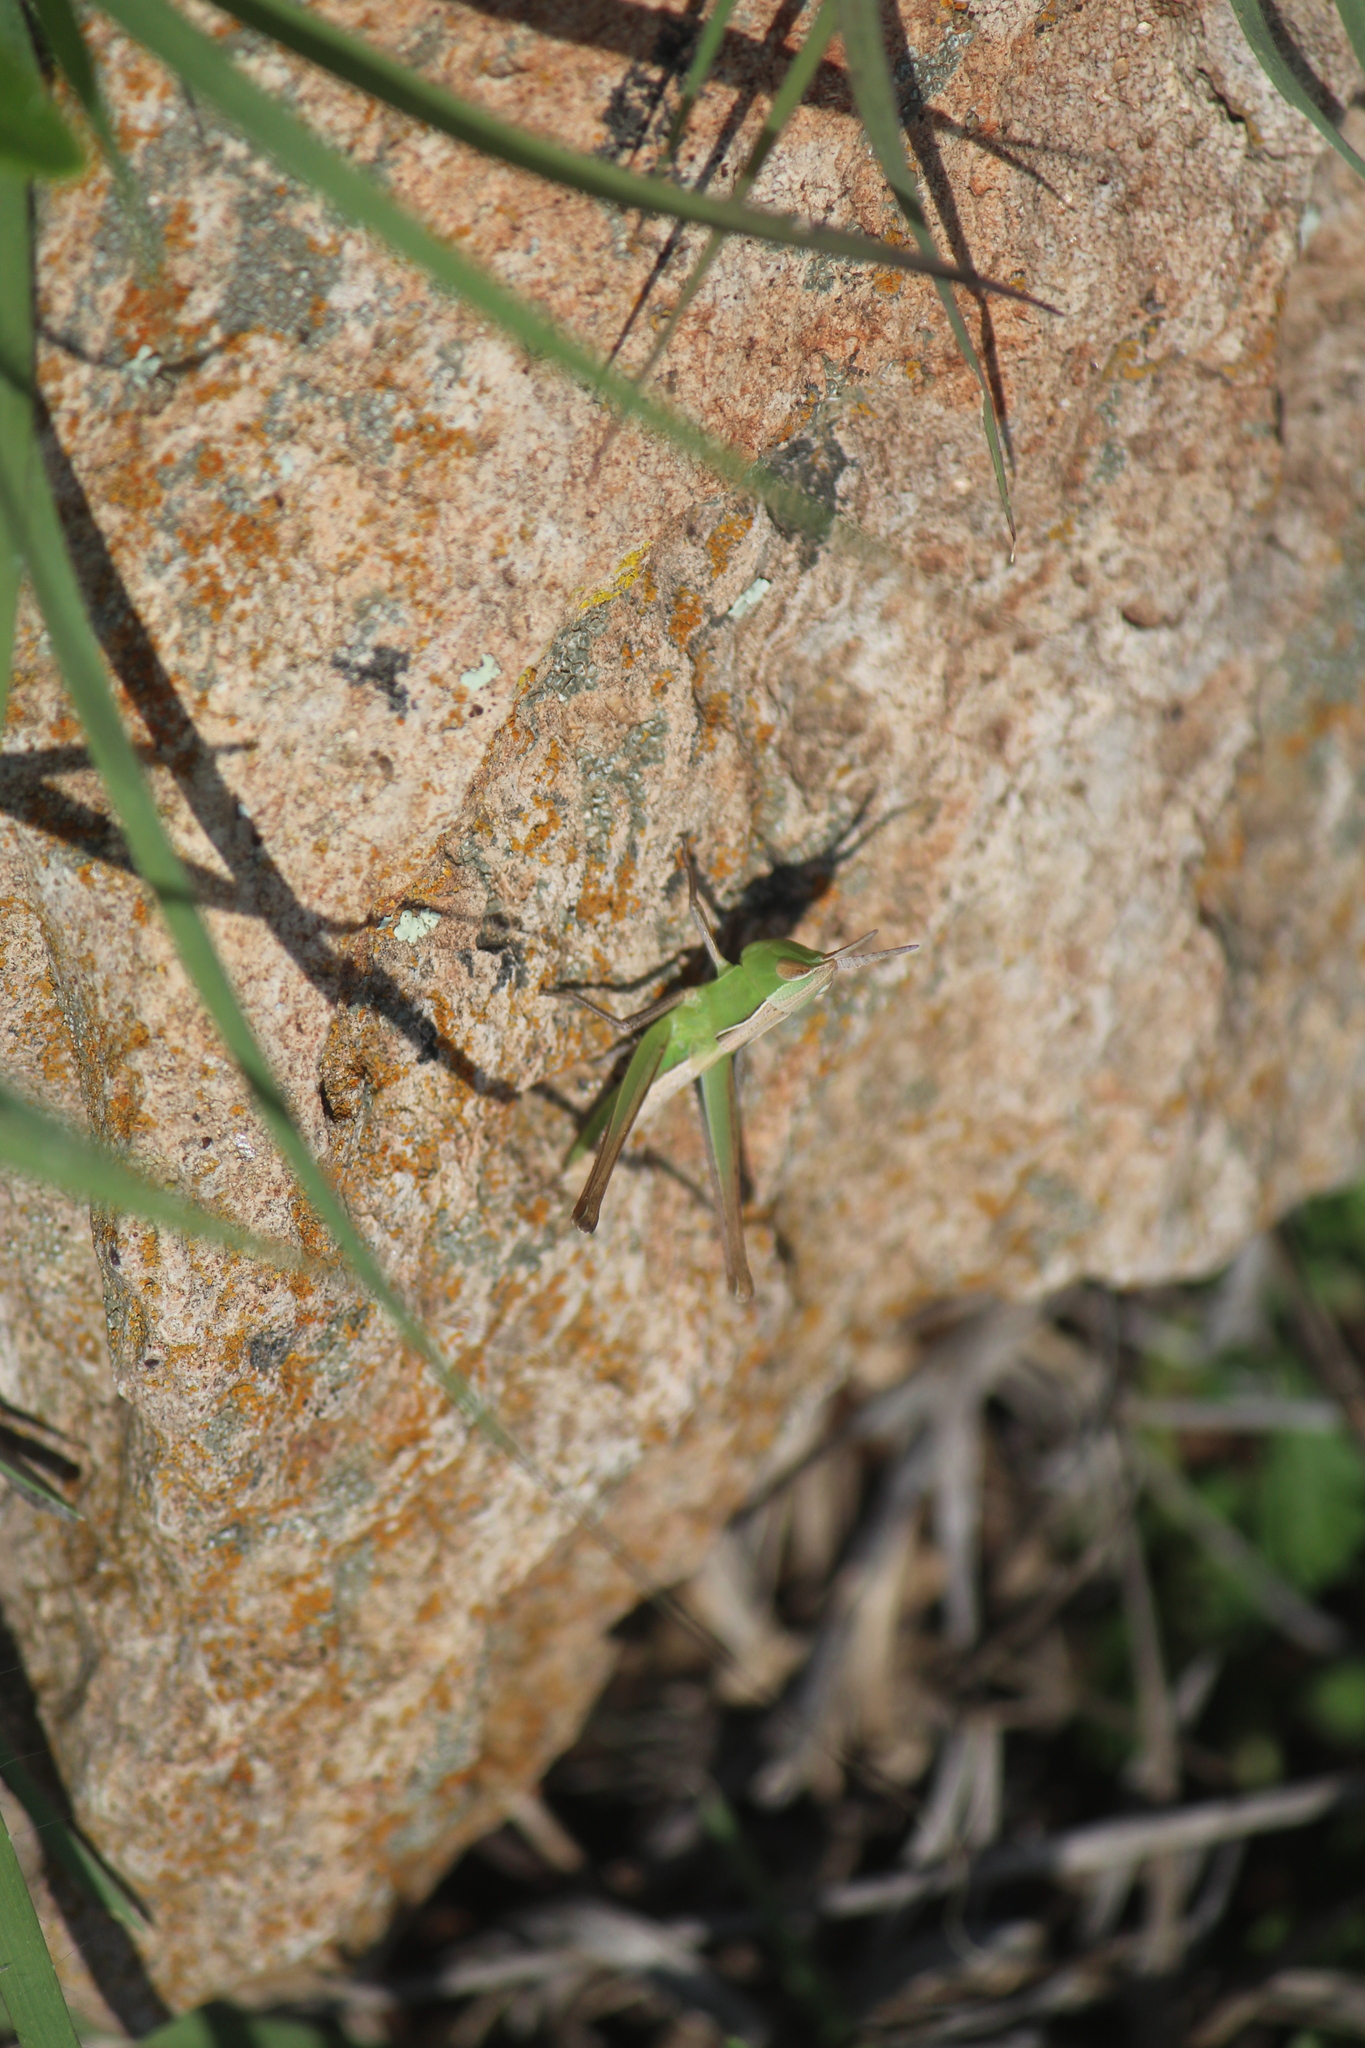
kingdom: Animalia
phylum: Arthropoda
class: Insecta
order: Orthoptera
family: Acrididae
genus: Syrbula
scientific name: Syrbula montezuma
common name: Montezuma's grasshopper
